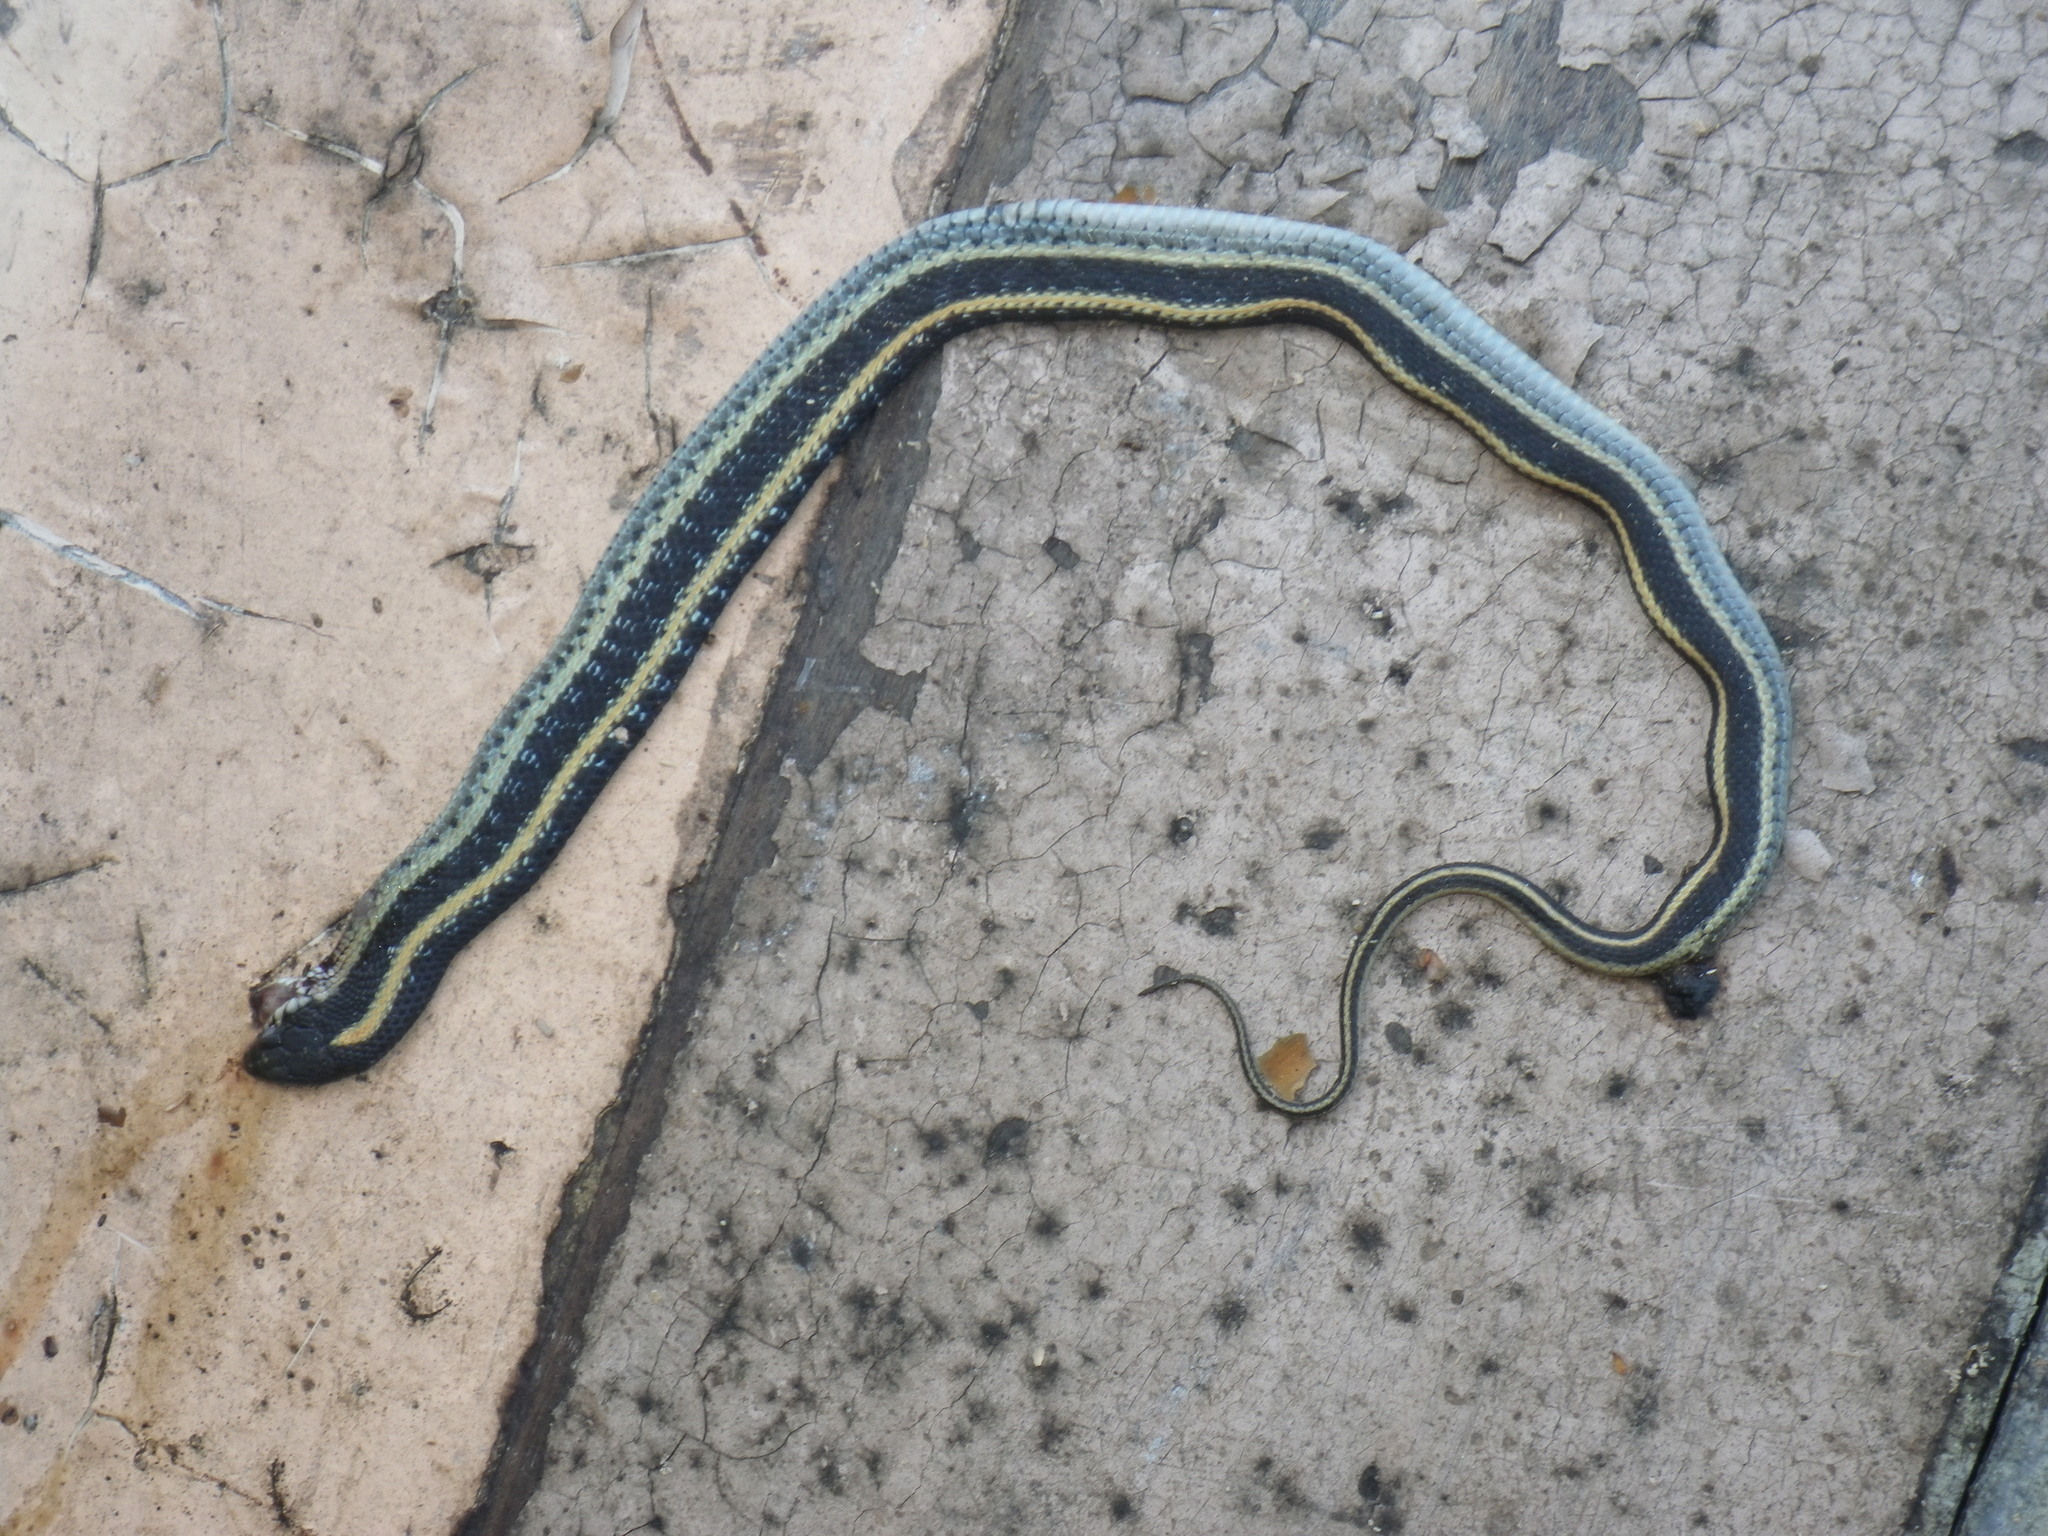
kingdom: Animalia
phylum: Chordata
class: Squamata
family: Colubridae
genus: Thamnophis
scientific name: Thamnophis elegans
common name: Western terrestrial garter snake
